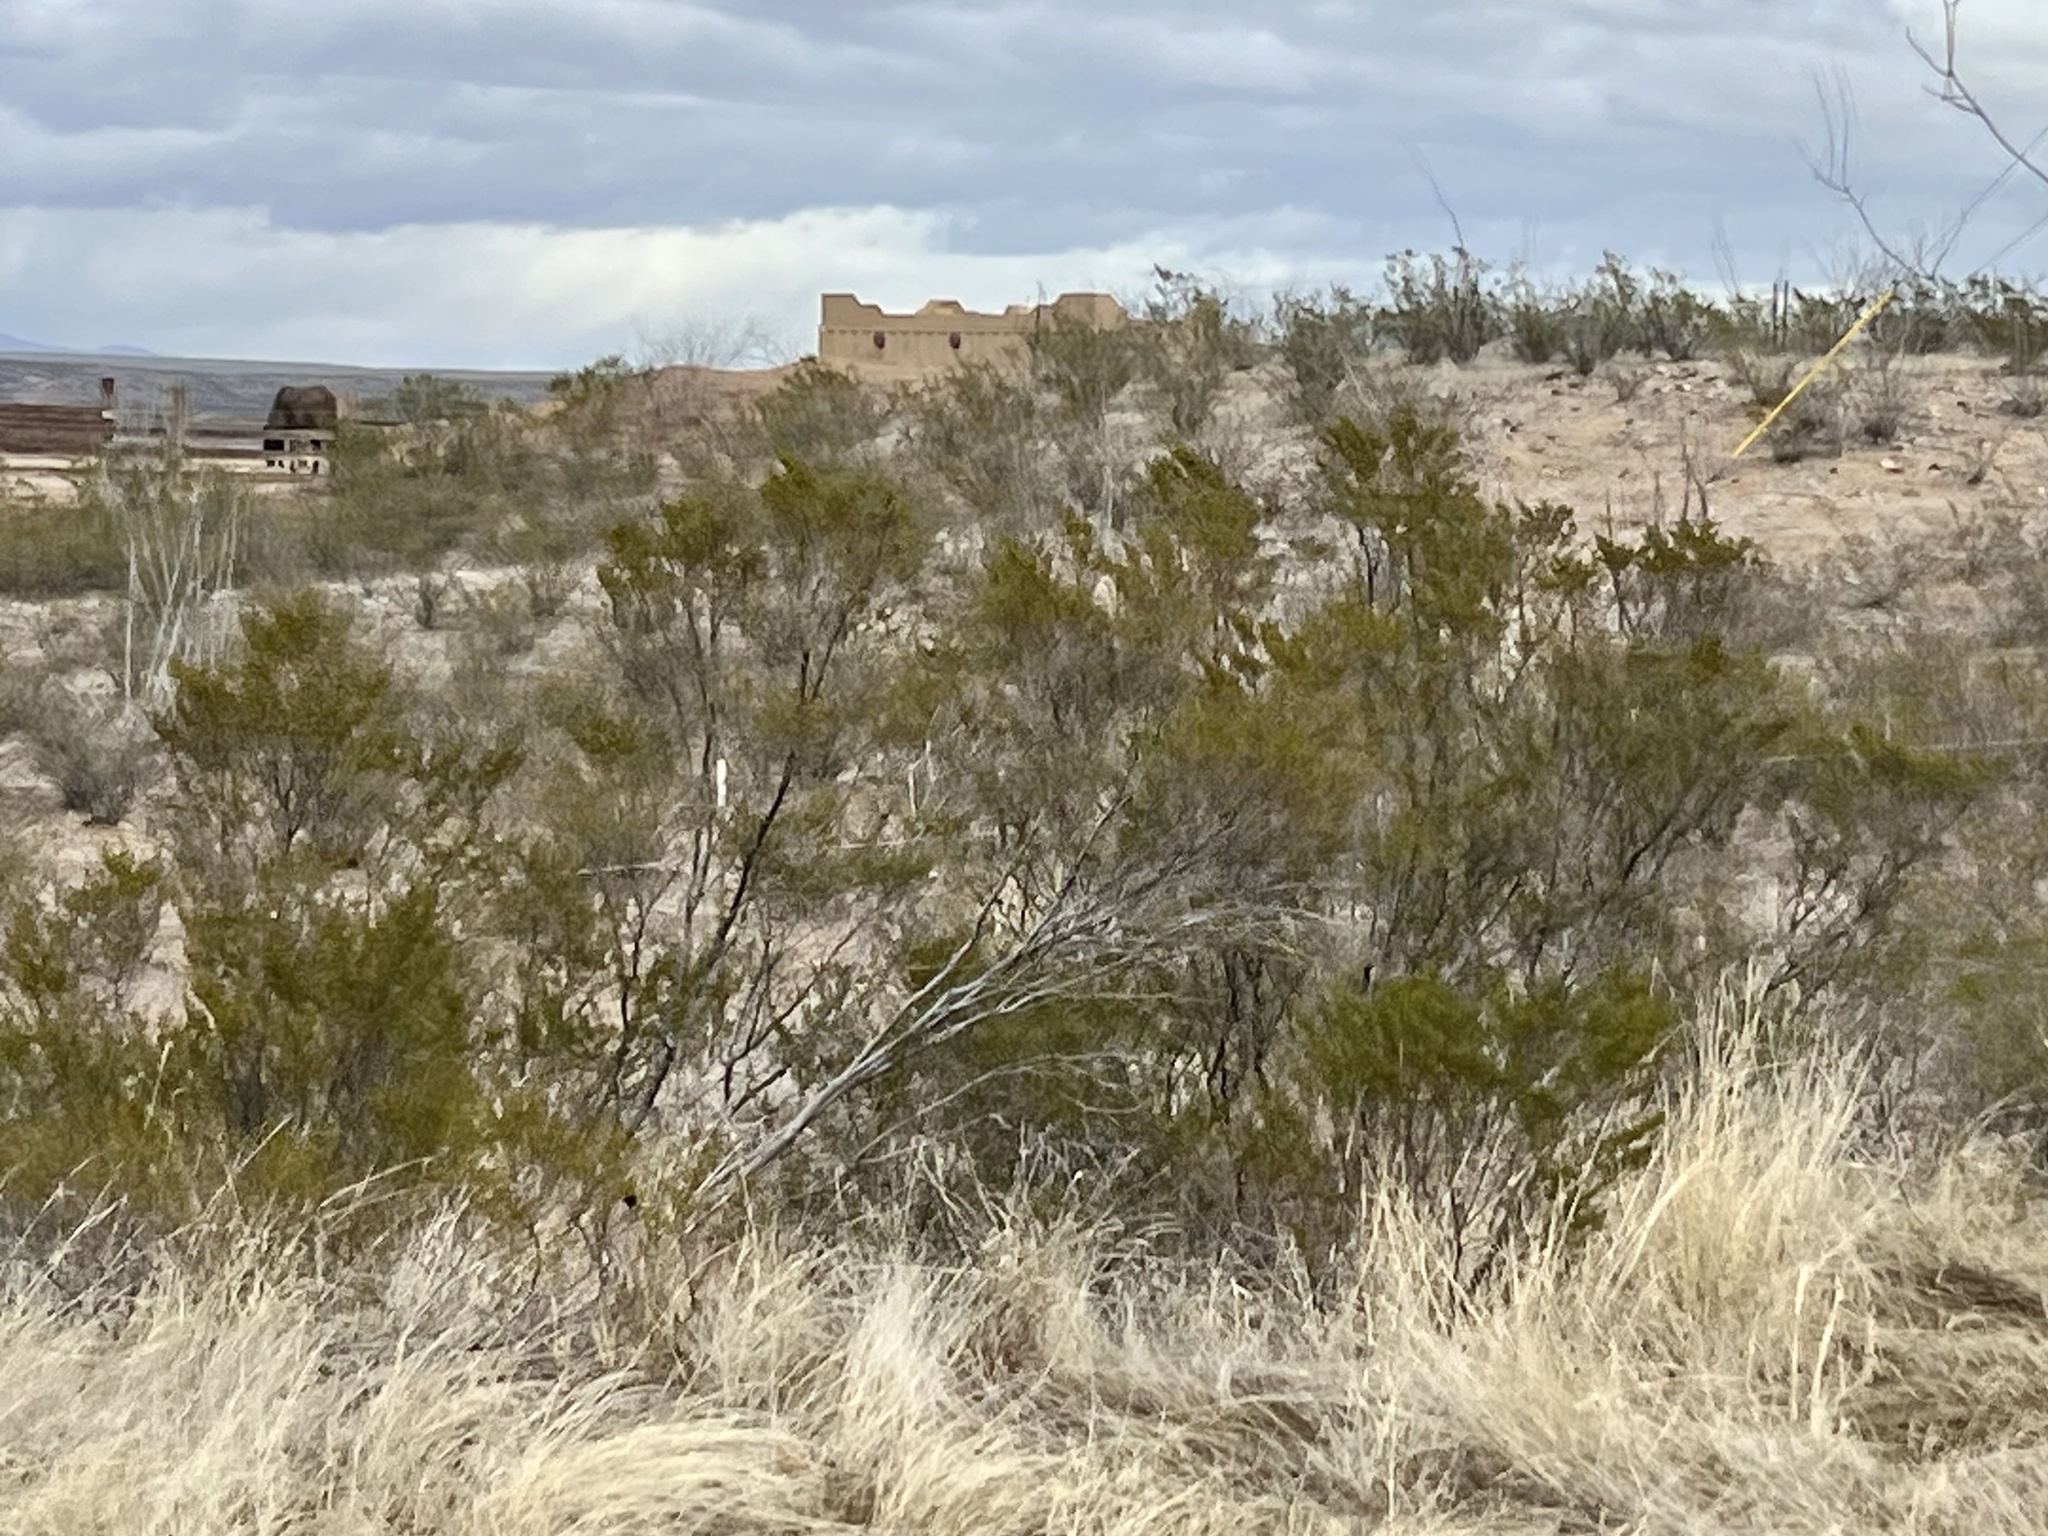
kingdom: Plantae
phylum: Tracheophyta
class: Magnoliopsida
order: Zygophyllales
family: Zygophyllaceae
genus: Larrea
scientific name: Larrea tridentata
